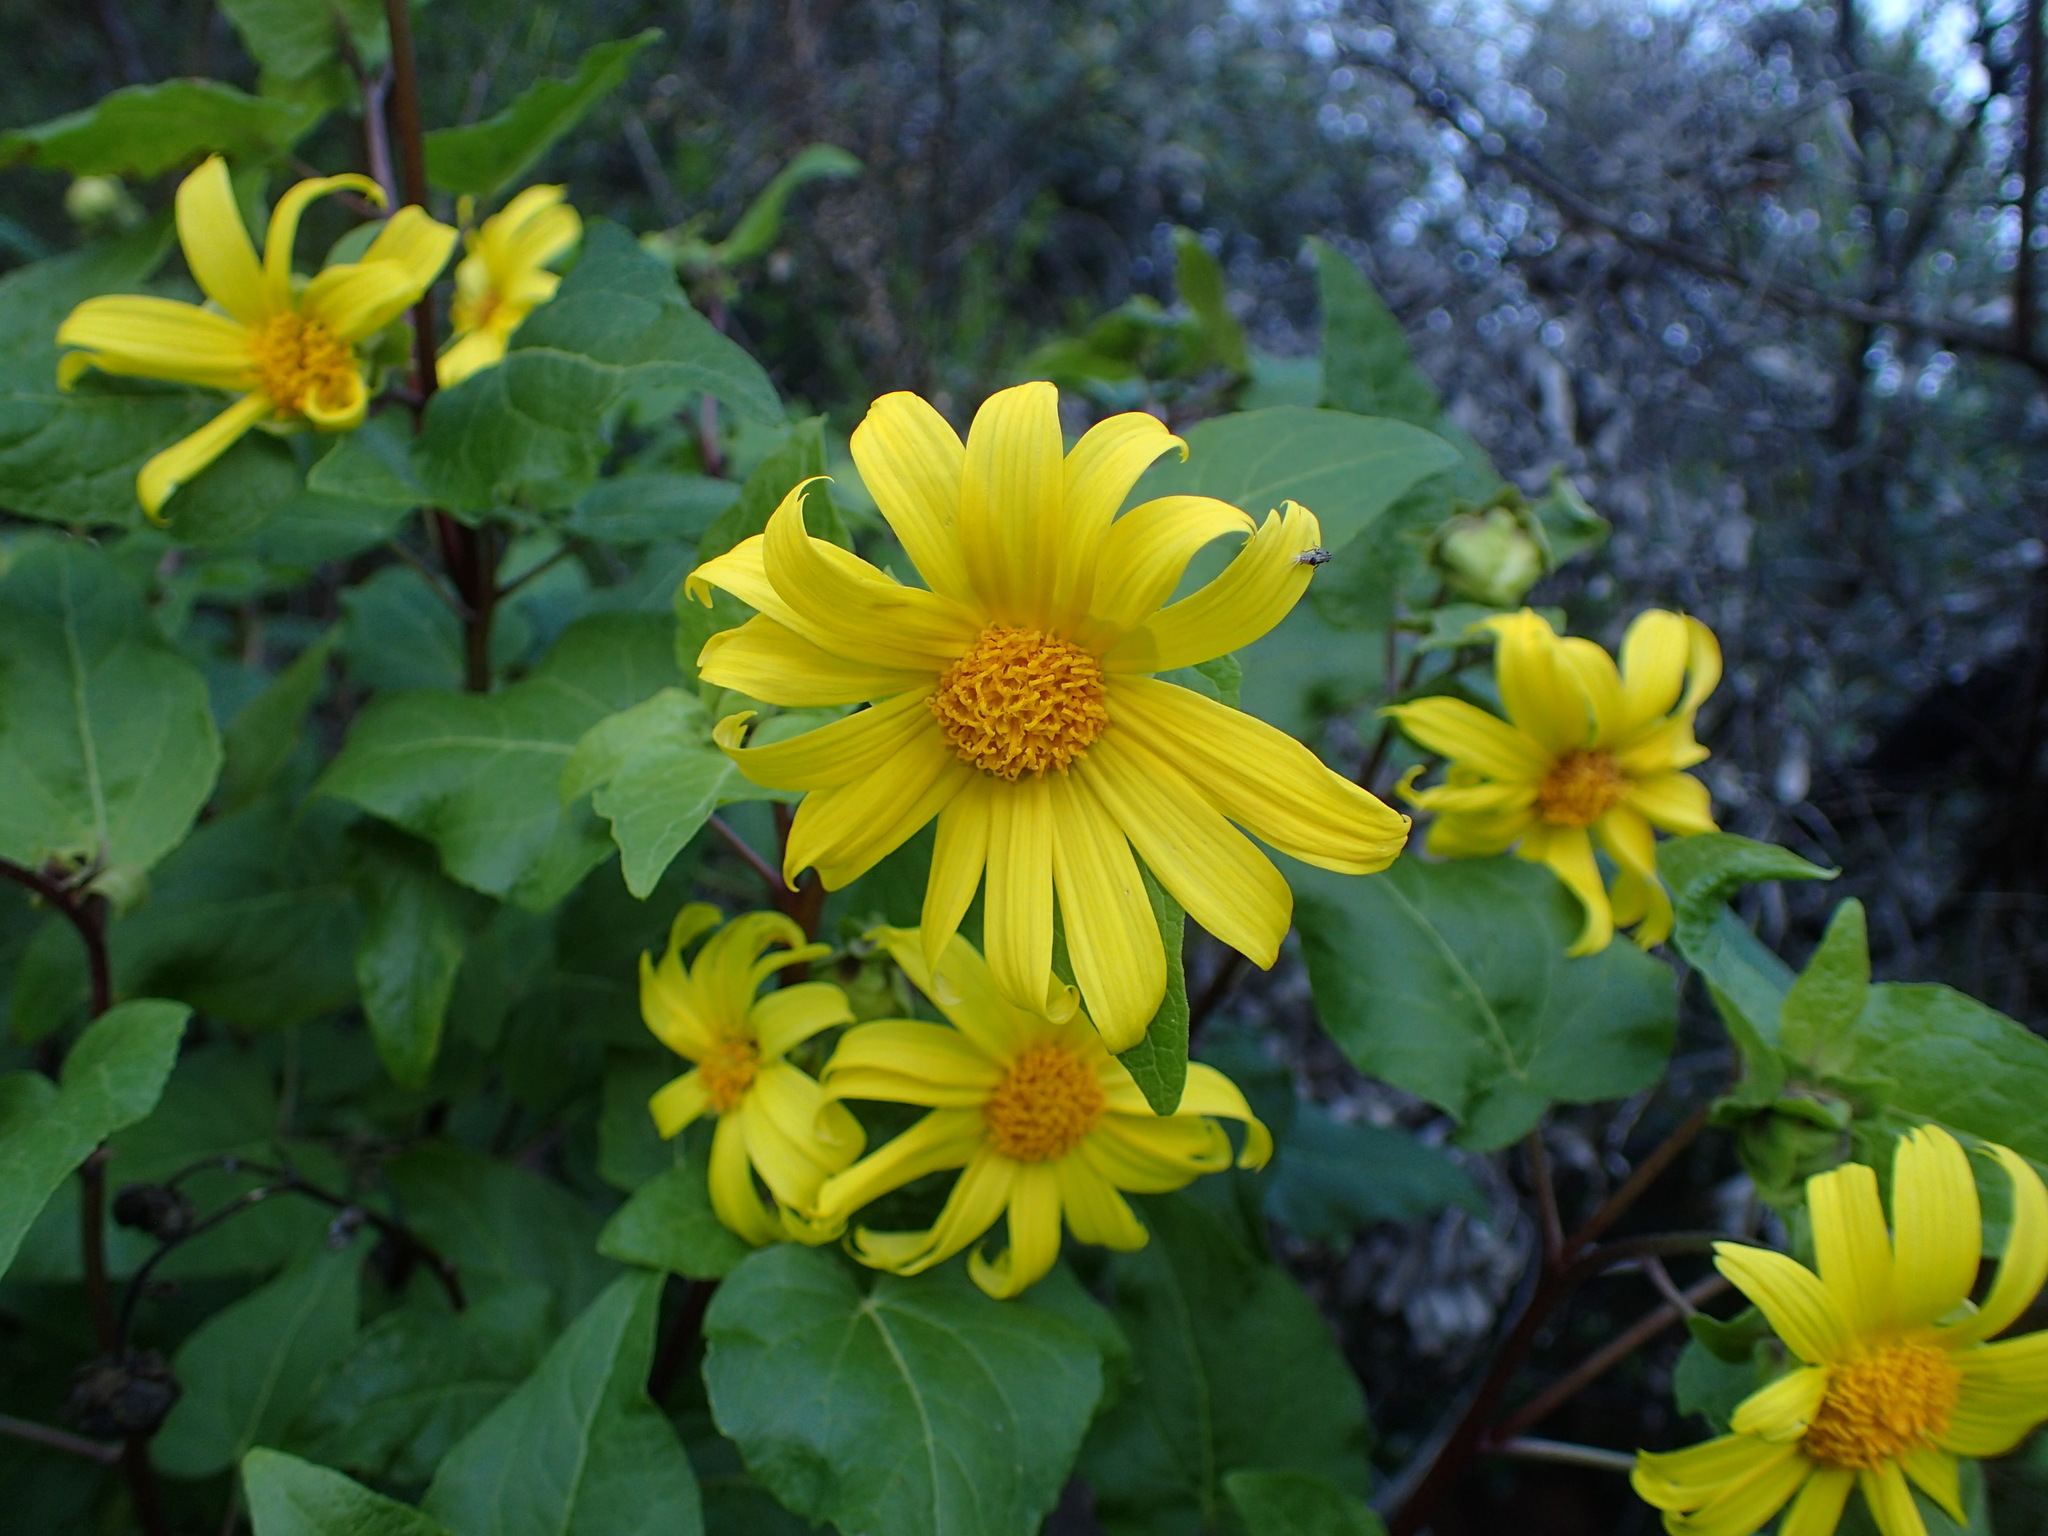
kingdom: Plantae
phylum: Tracheophyta
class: Magnoliopsida
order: Asterales
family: Asteraceae
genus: Venegasia
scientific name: Venegasia carpesioides
